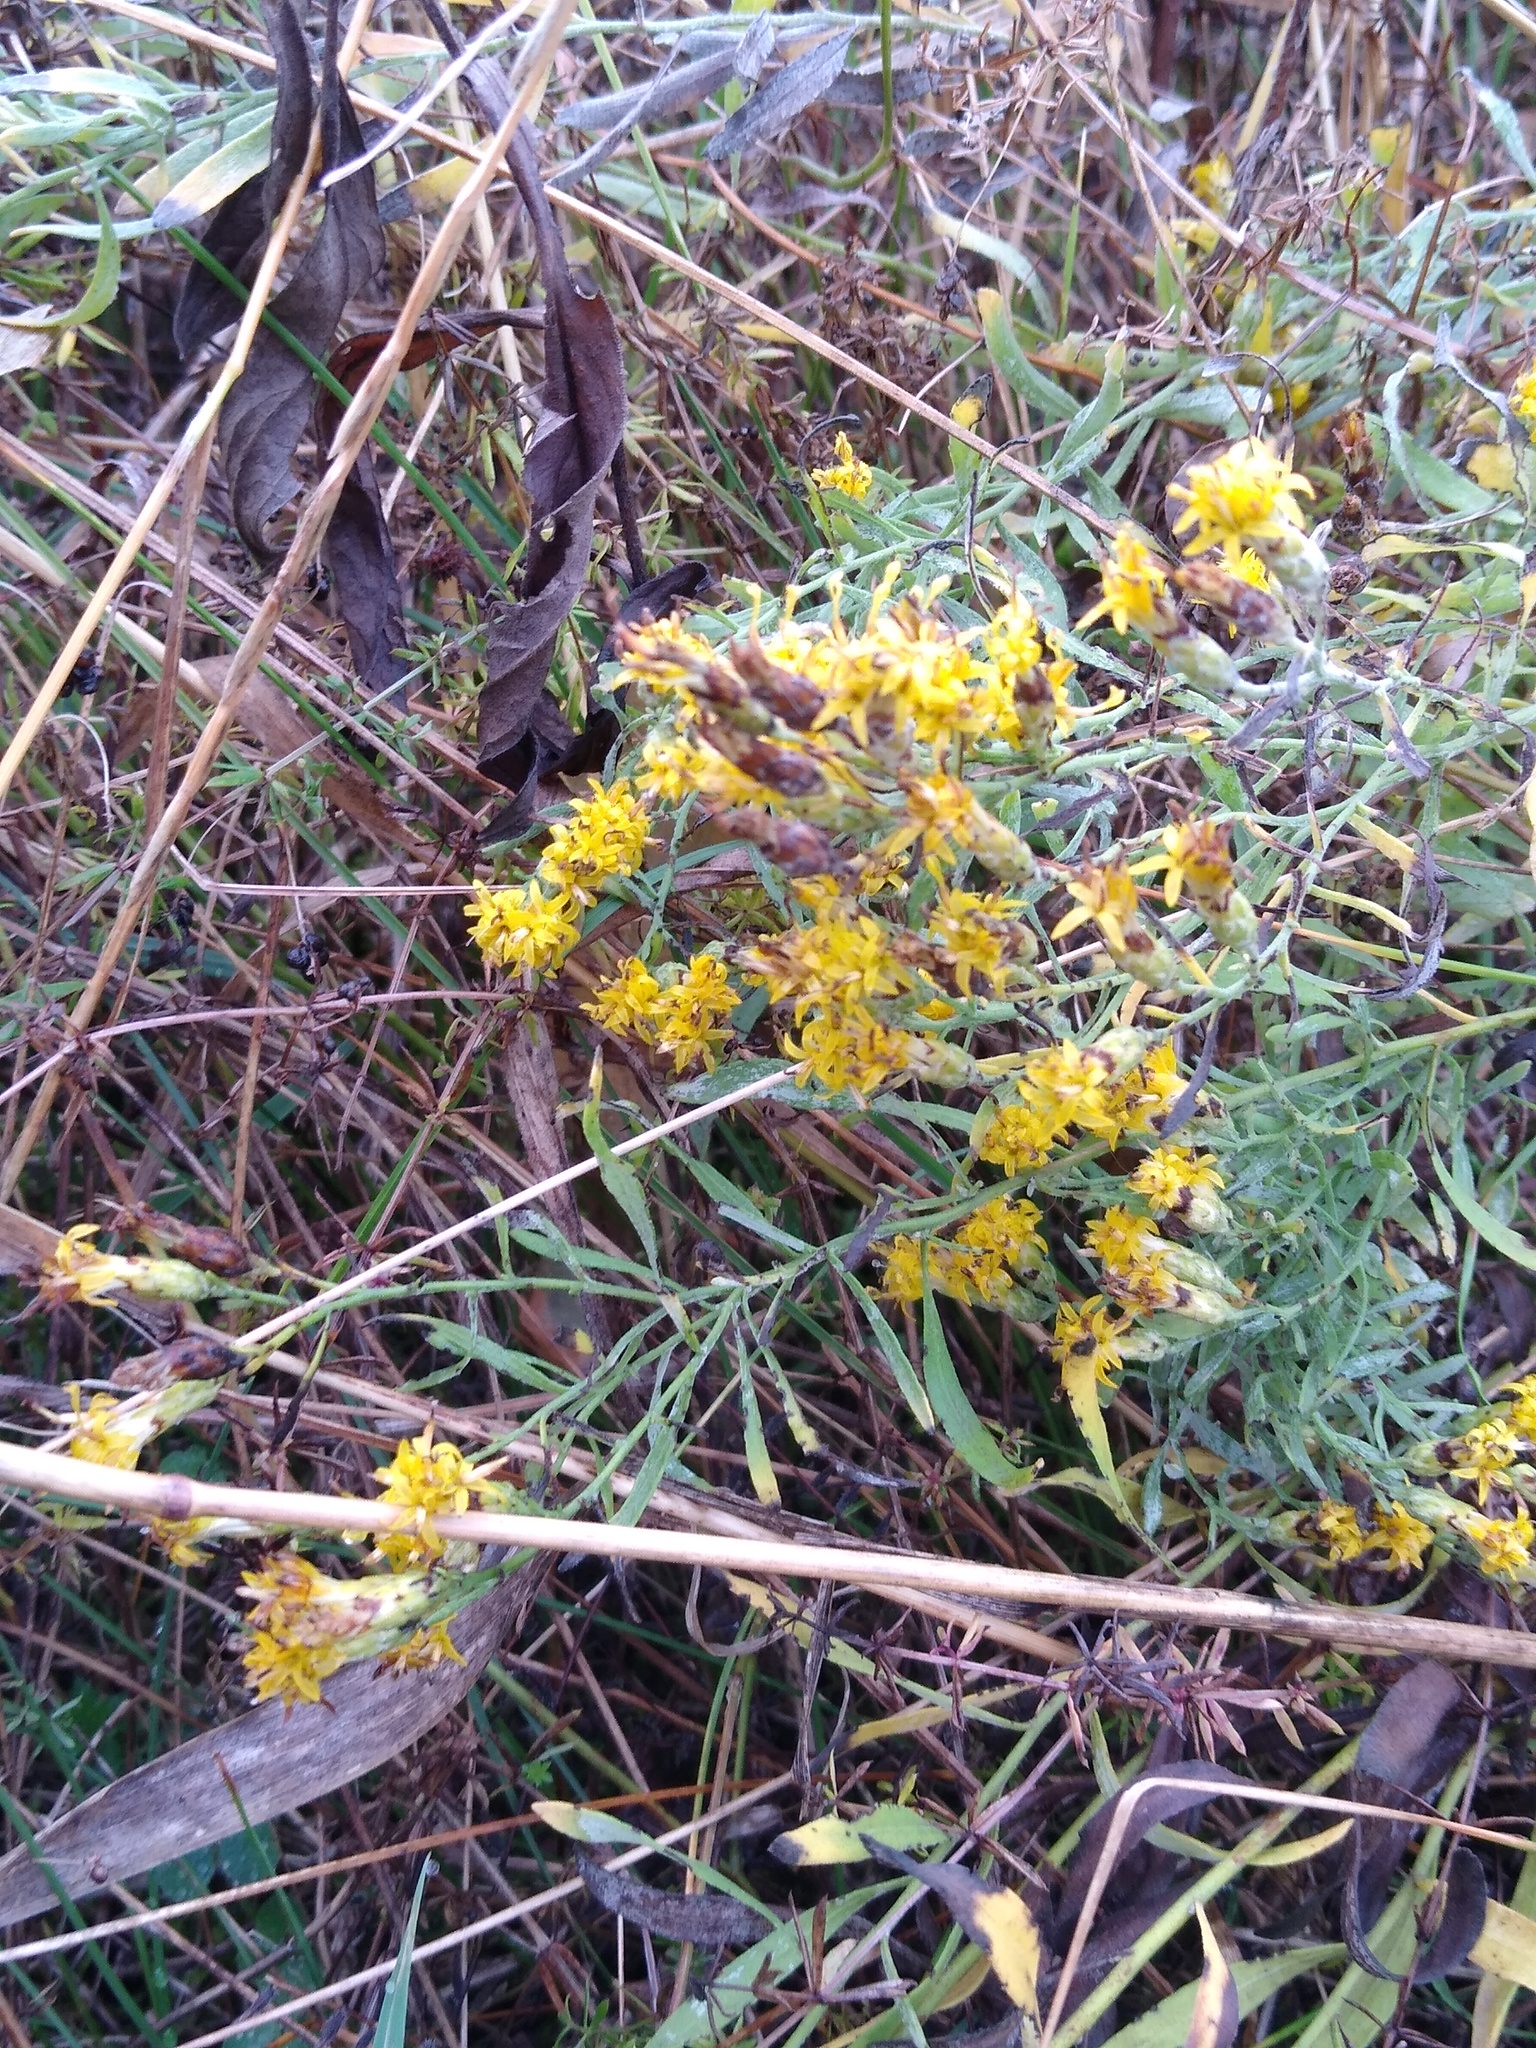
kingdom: Plantae
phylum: Tracheophyta
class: Magnoliopsida
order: Asterales
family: Asteraceae
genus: Galatella
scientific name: Galatella villosa
